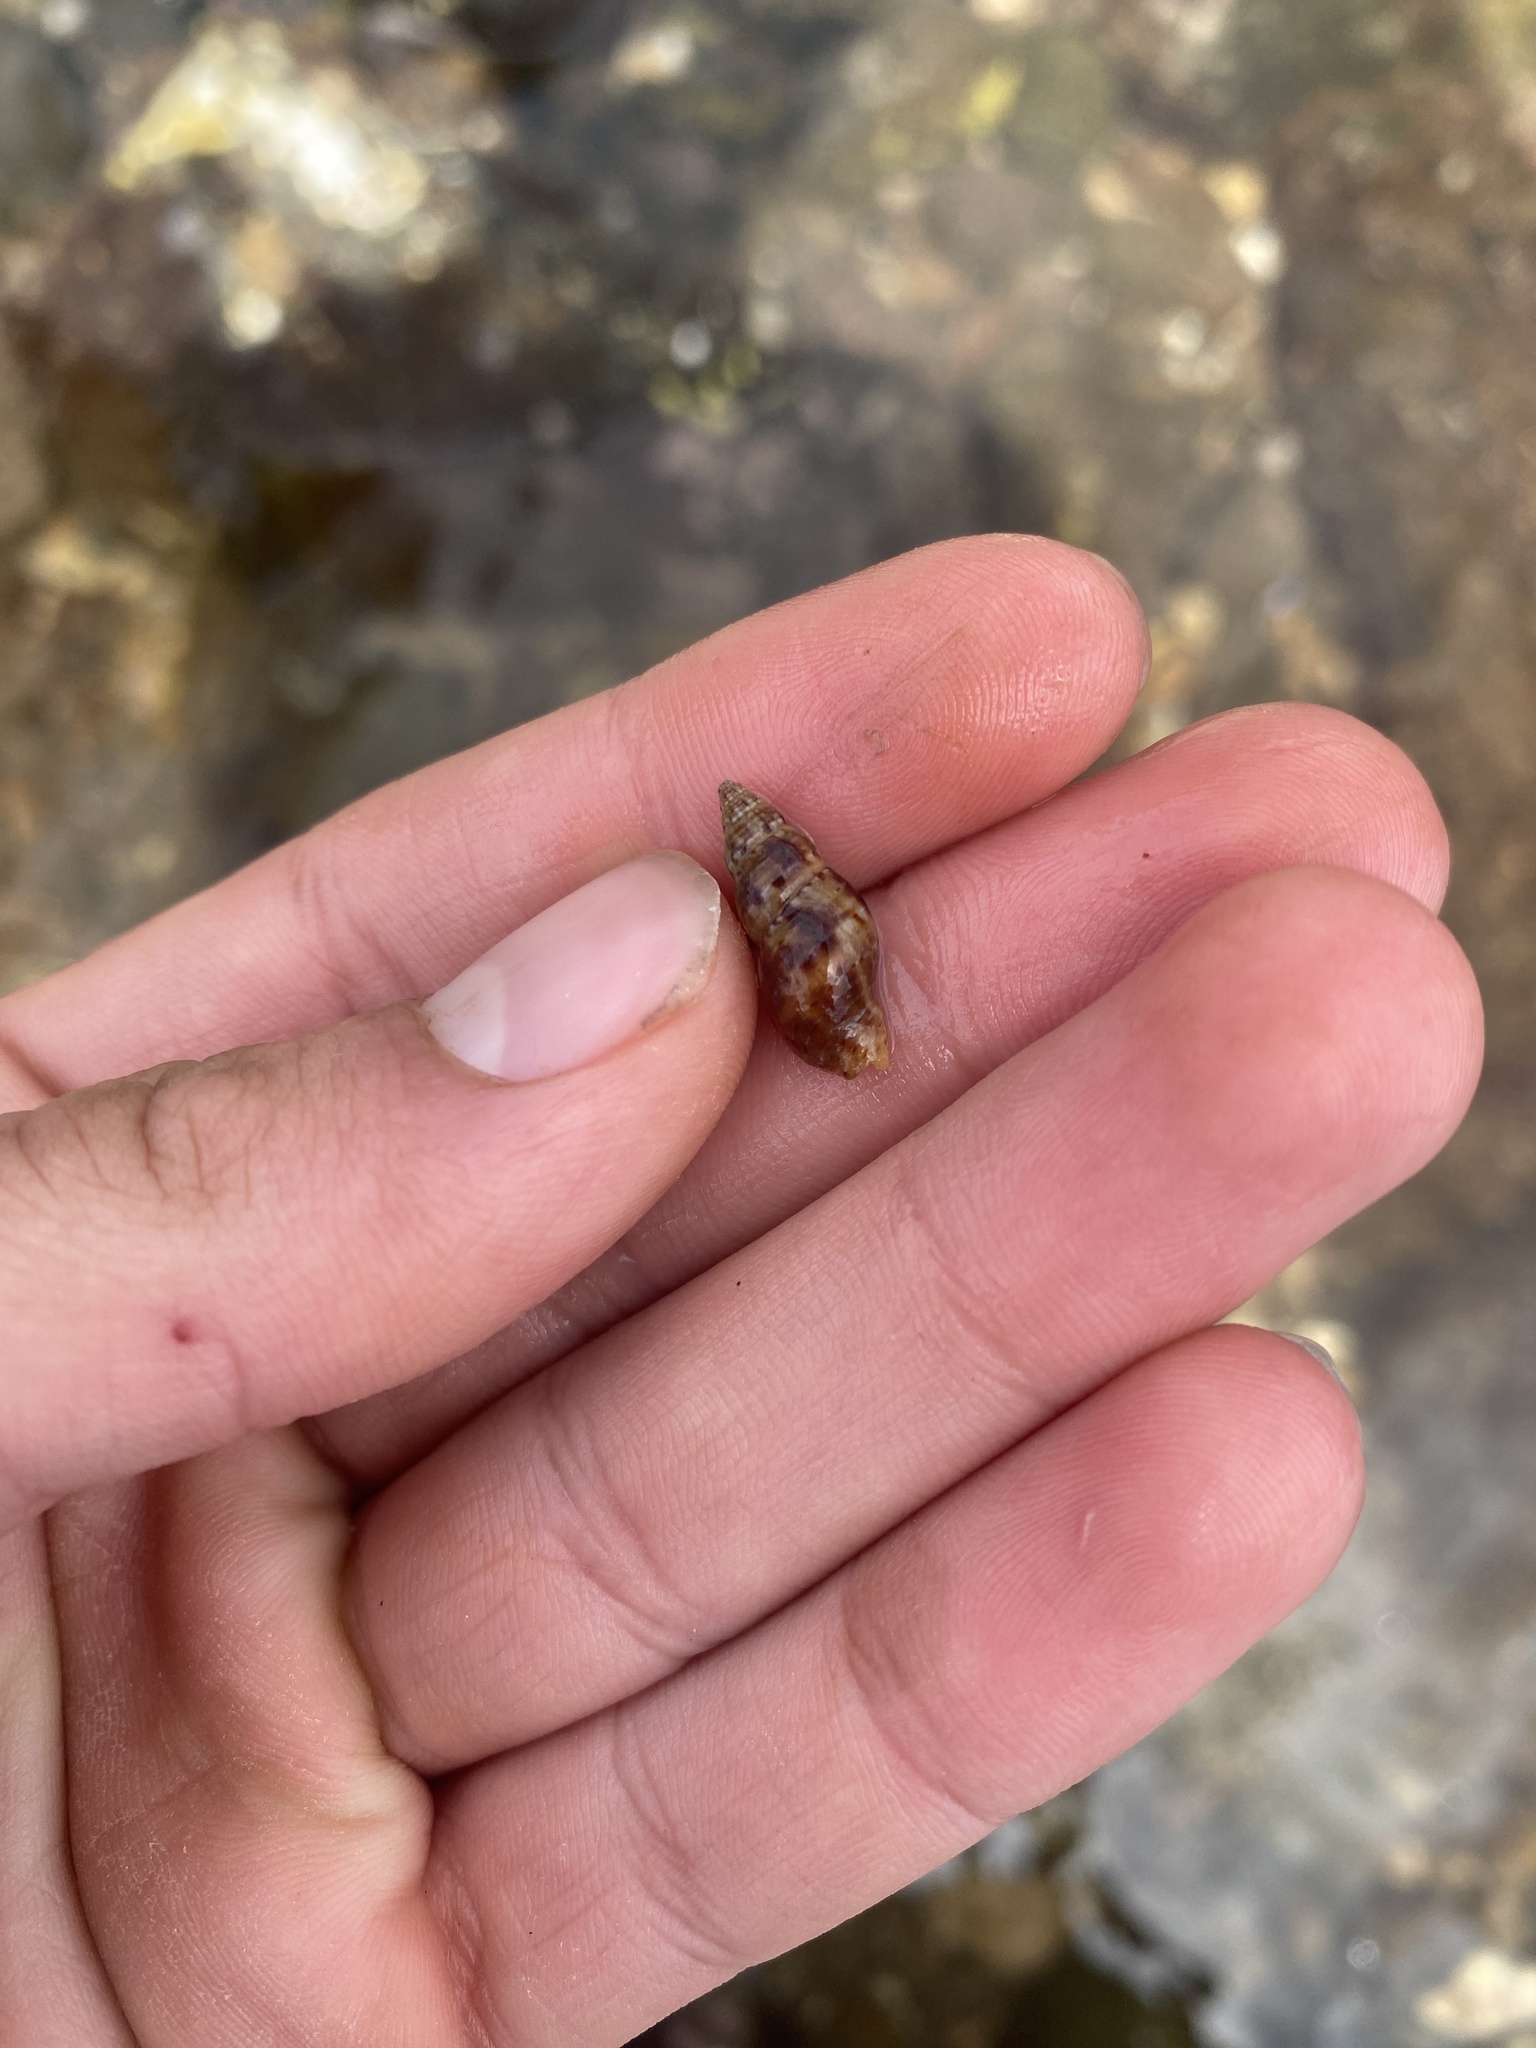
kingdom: Animalia
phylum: Mollusca
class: Gastropoda
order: Neogastropoda
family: Pisaniidae
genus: Pisania
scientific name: Pisania ignea
